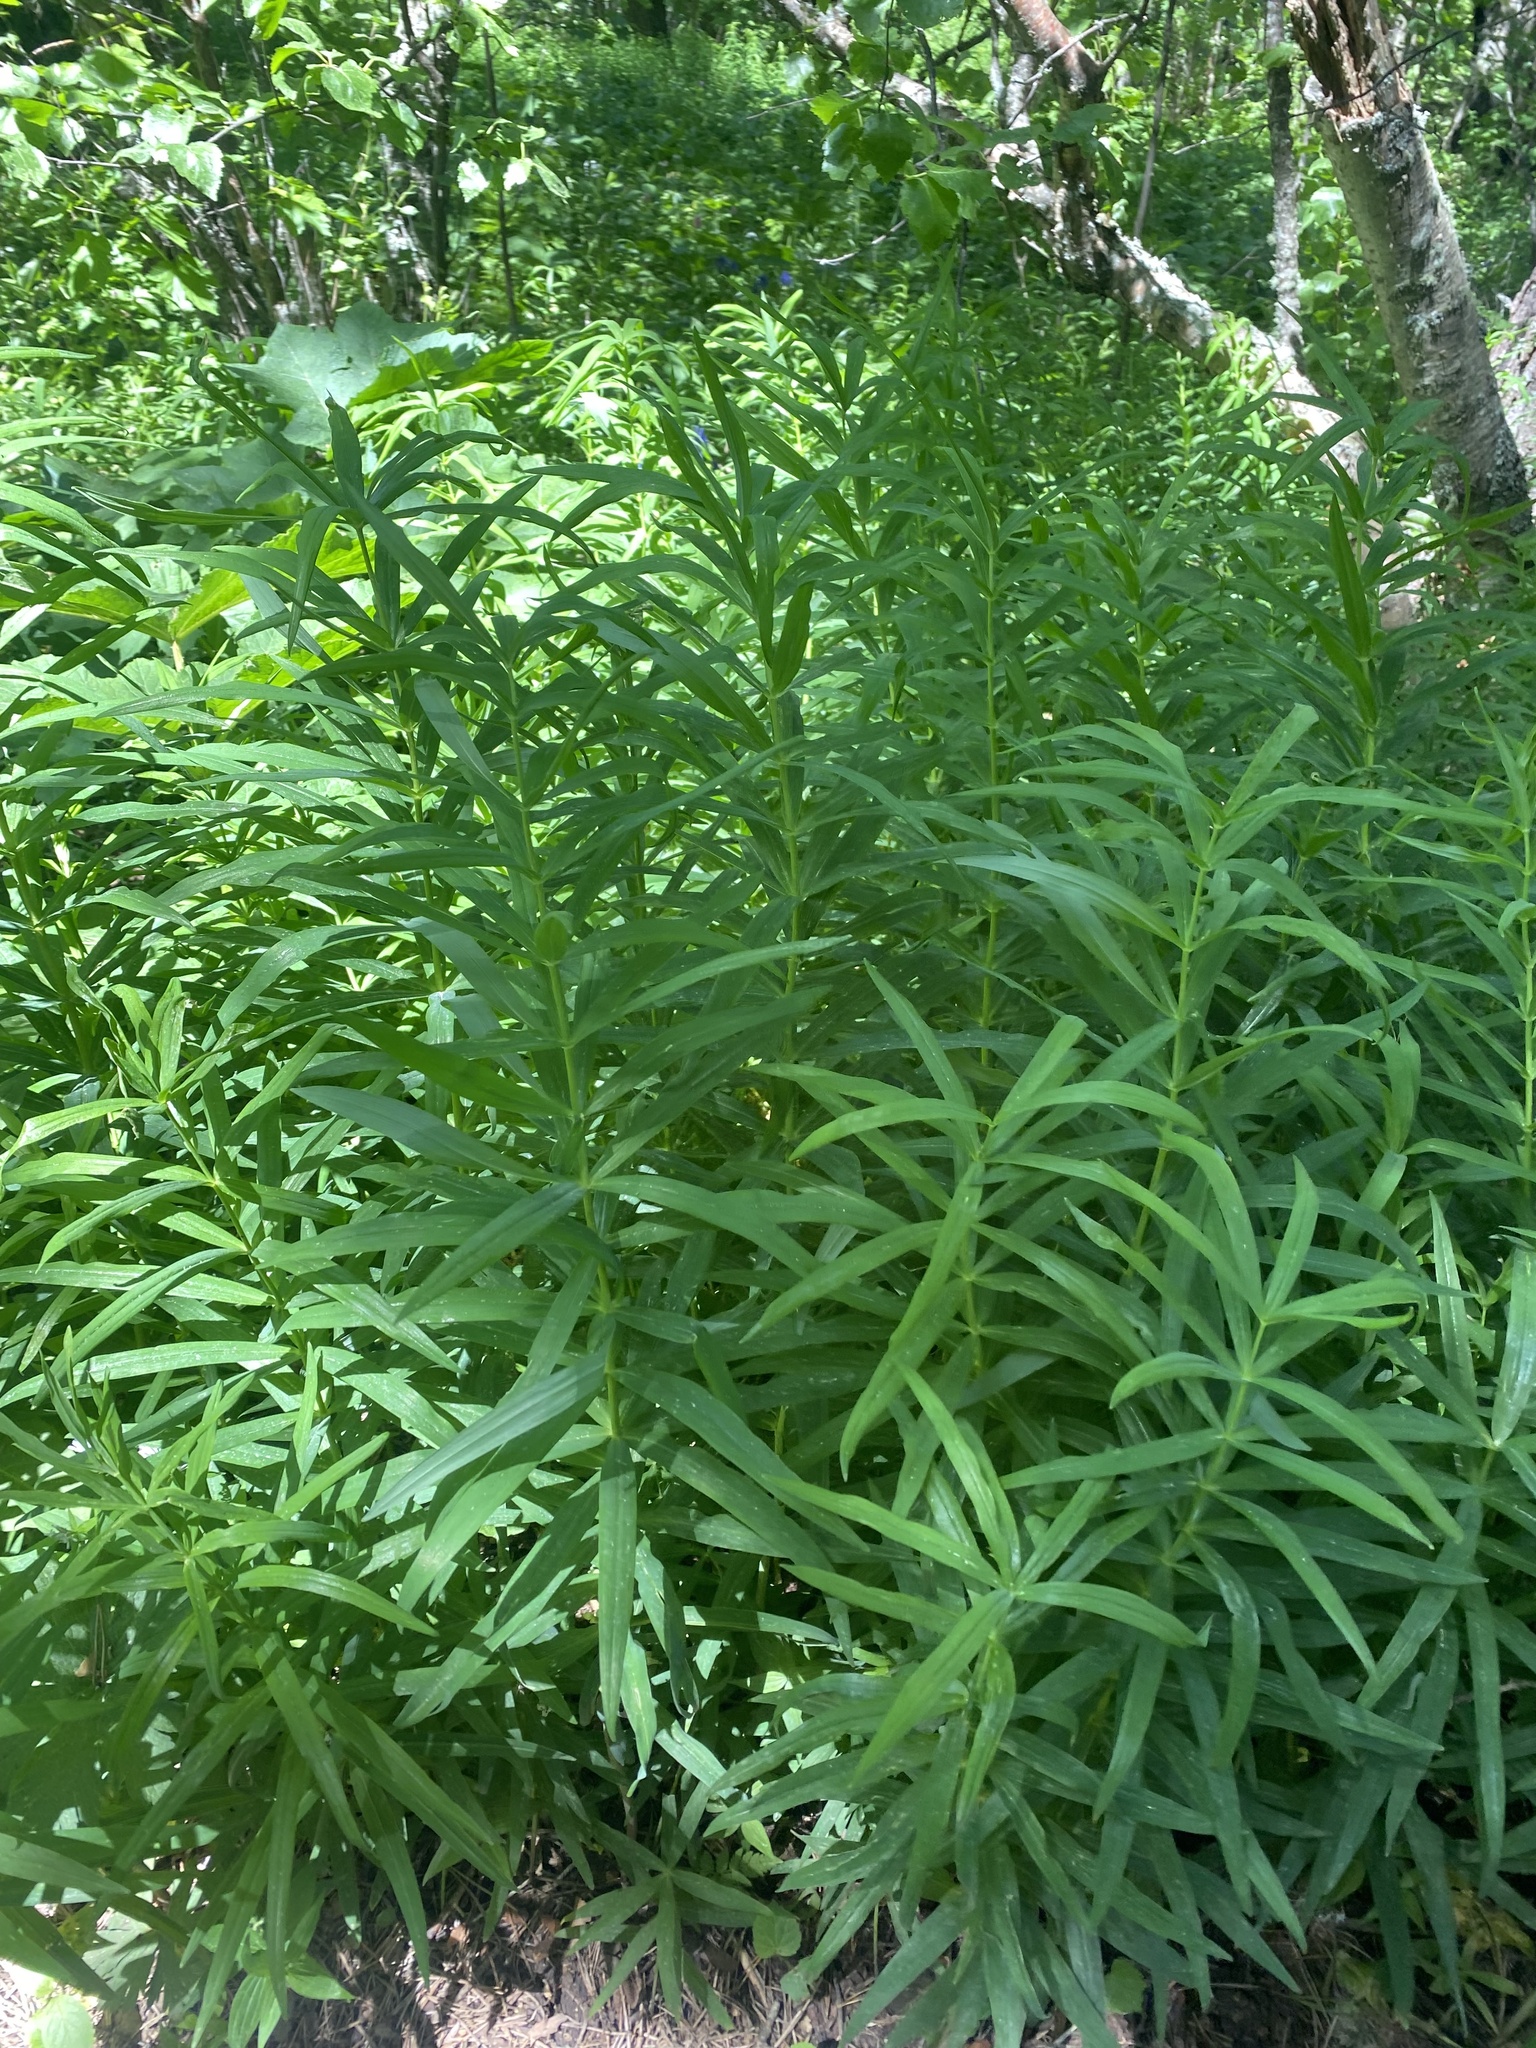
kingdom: Plantae
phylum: Tracheophyta
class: Liliopsida
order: Asparagales
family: Asparagaceae
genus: Polygonatum
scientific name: Polygonatum verticillatum
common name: Whorled solomon's-seal
